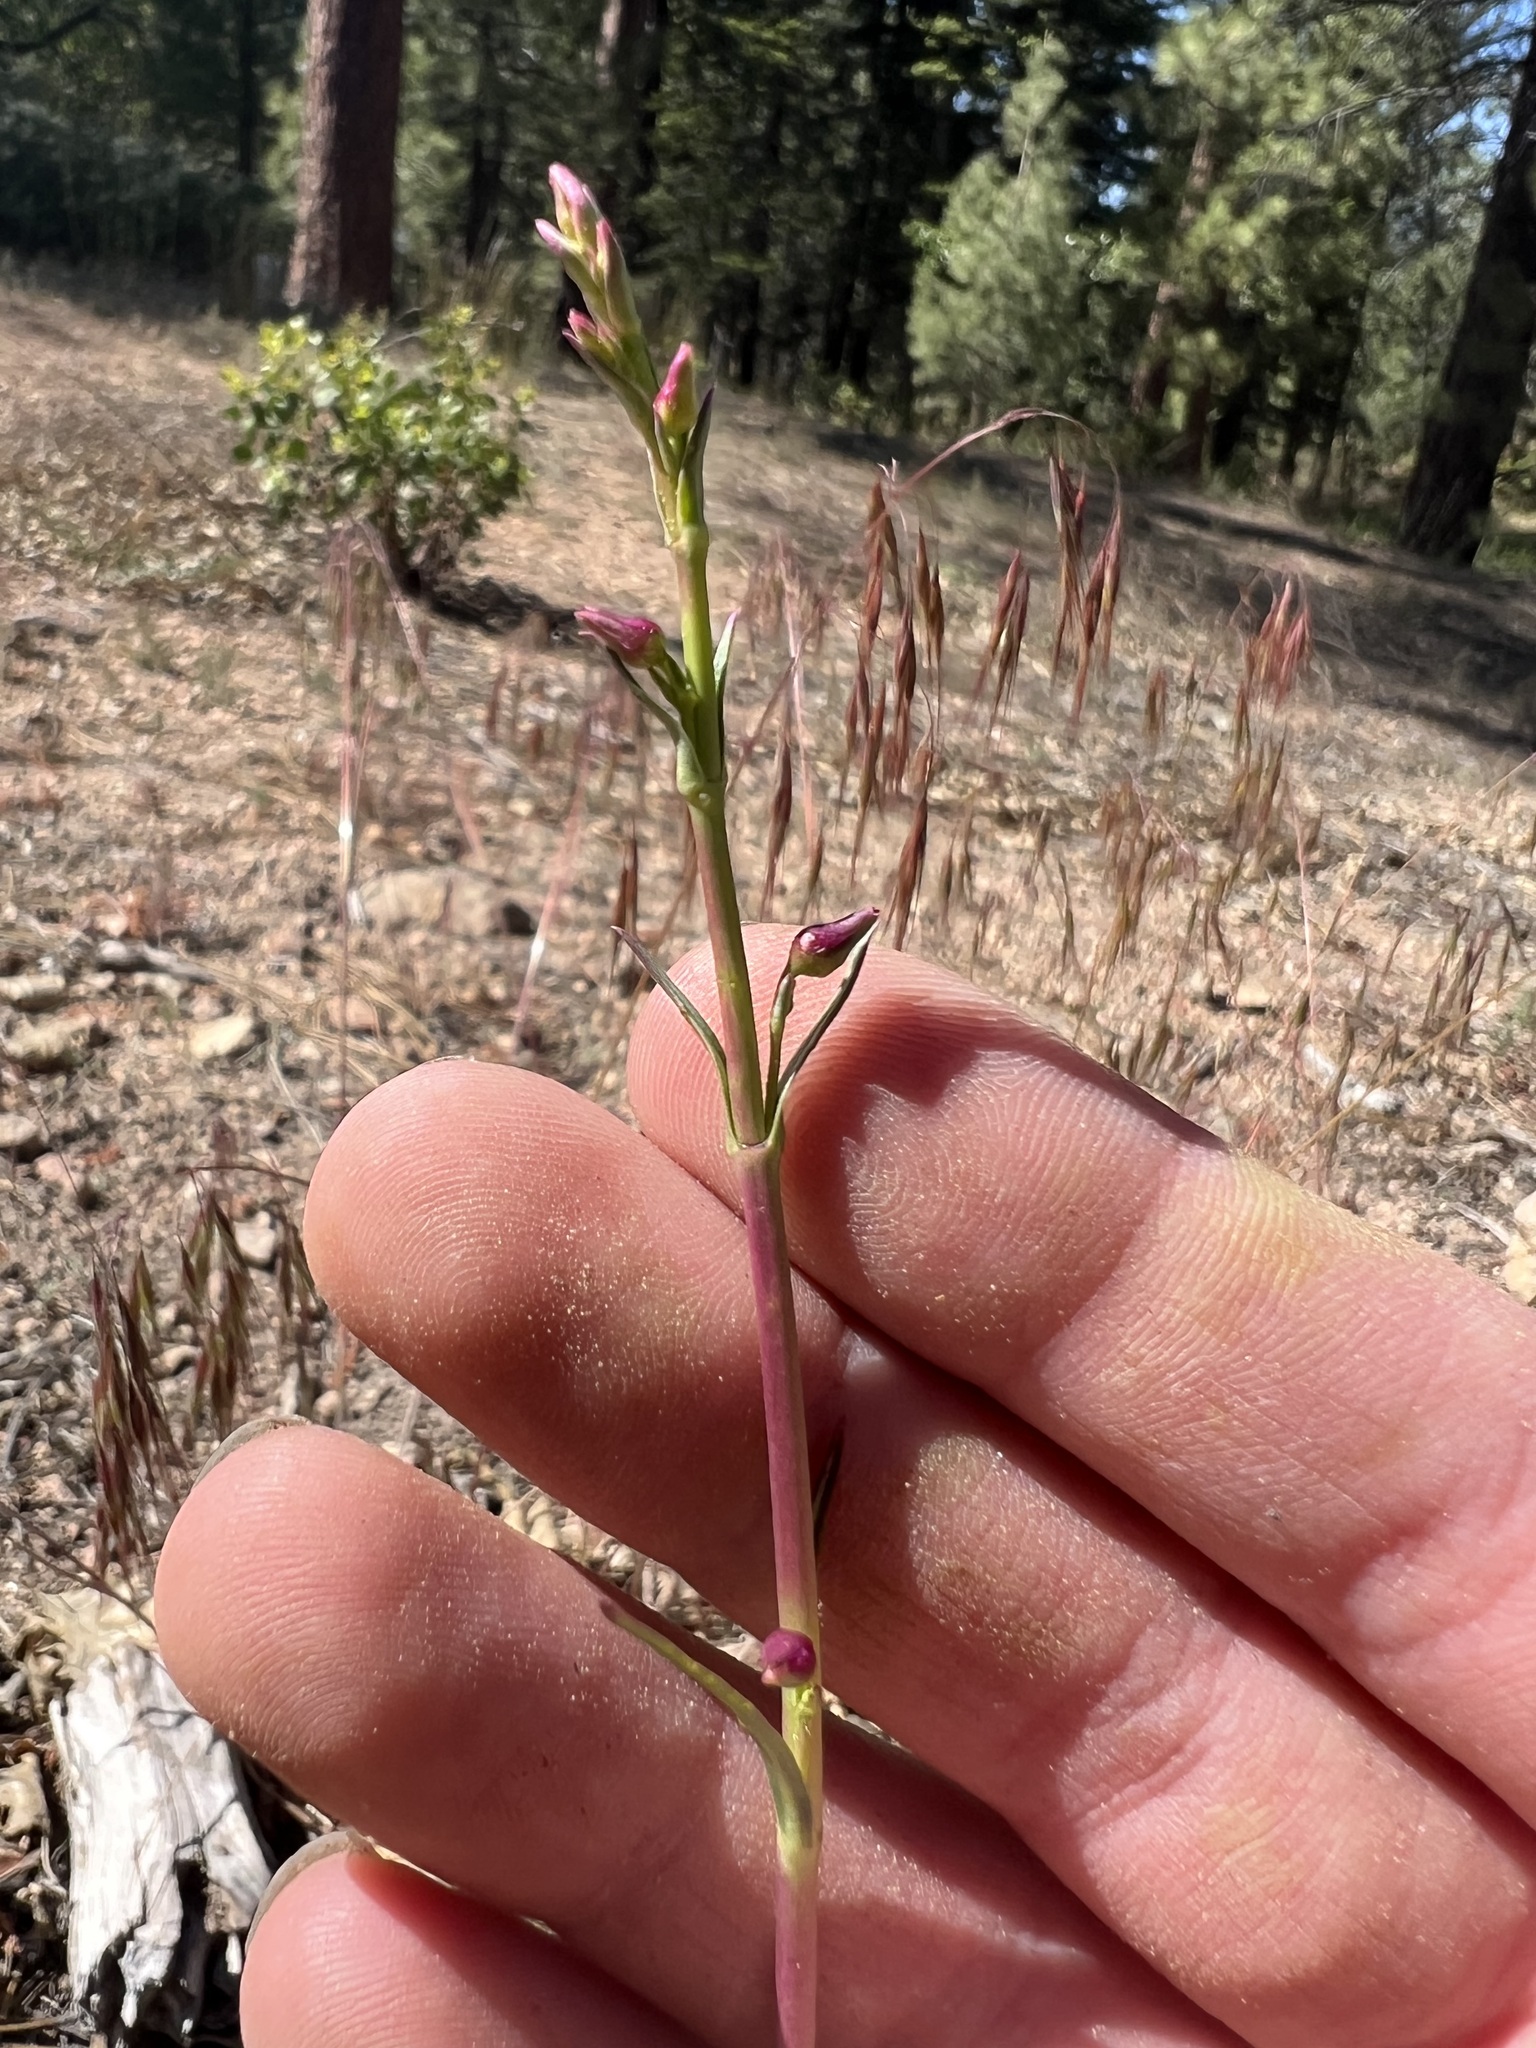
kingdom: Plantae
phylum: Tracheophyta
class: Magnoliopsida
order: Lamiales
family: Plantaginaceae
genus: Penstemon
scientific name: Penstemon labrosus
